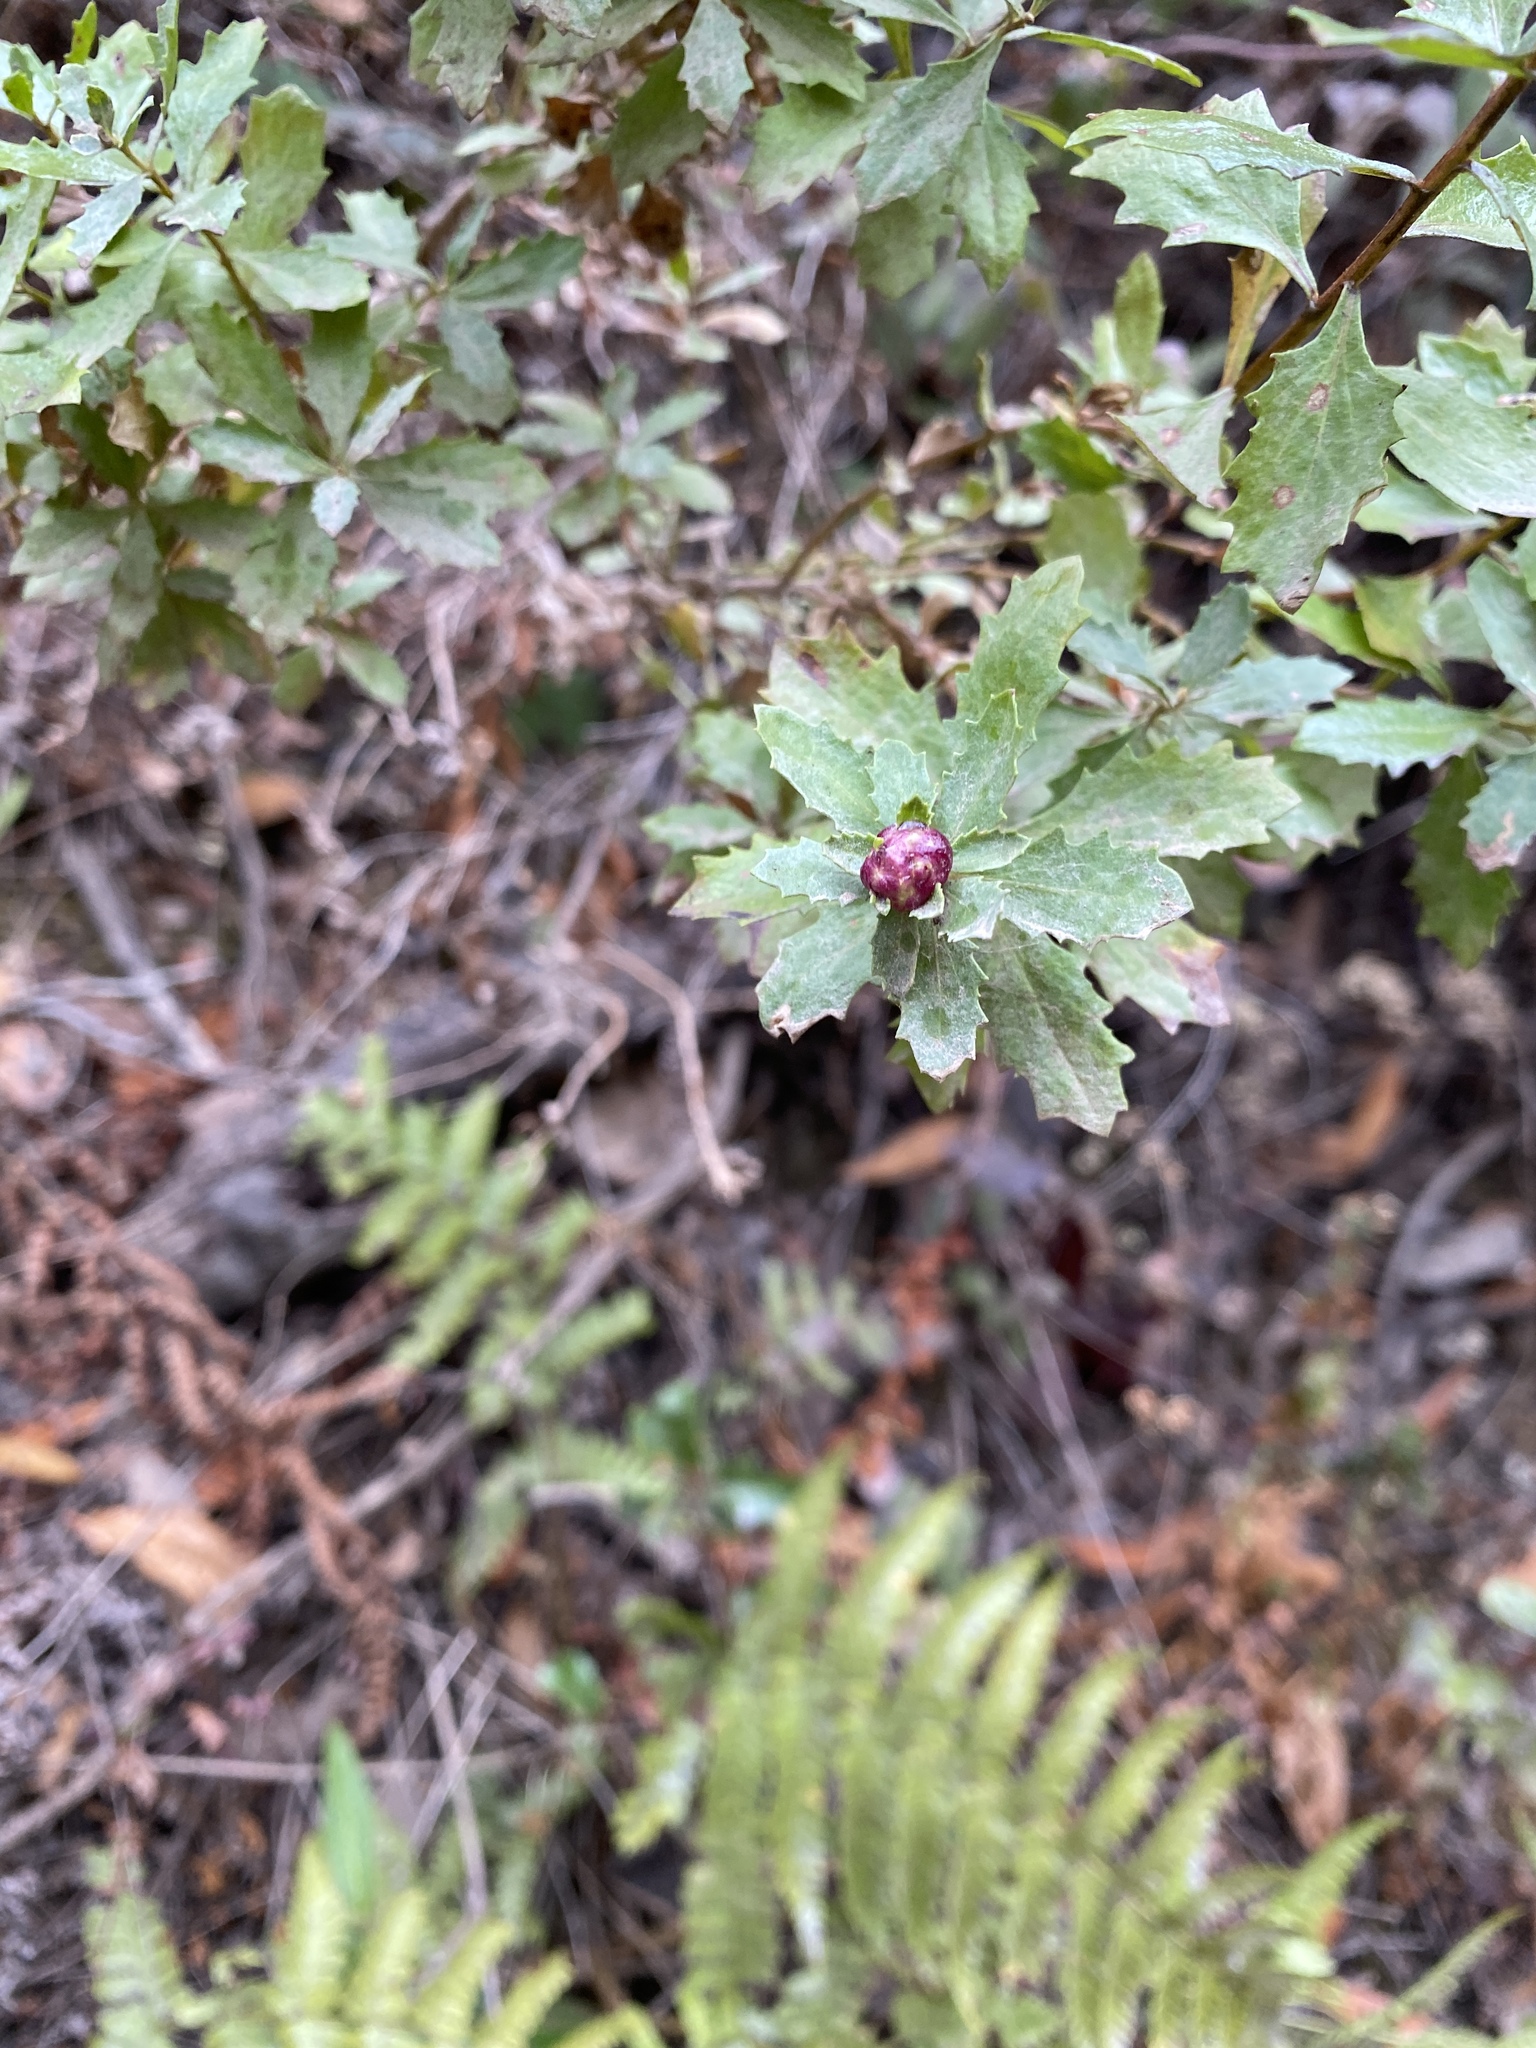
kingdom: Animalia
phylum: Arthropoda
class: Insecta
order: Diptera
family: Cecidomyiidae
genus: Rhopalomyia
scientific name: Rhopalomyia californica
